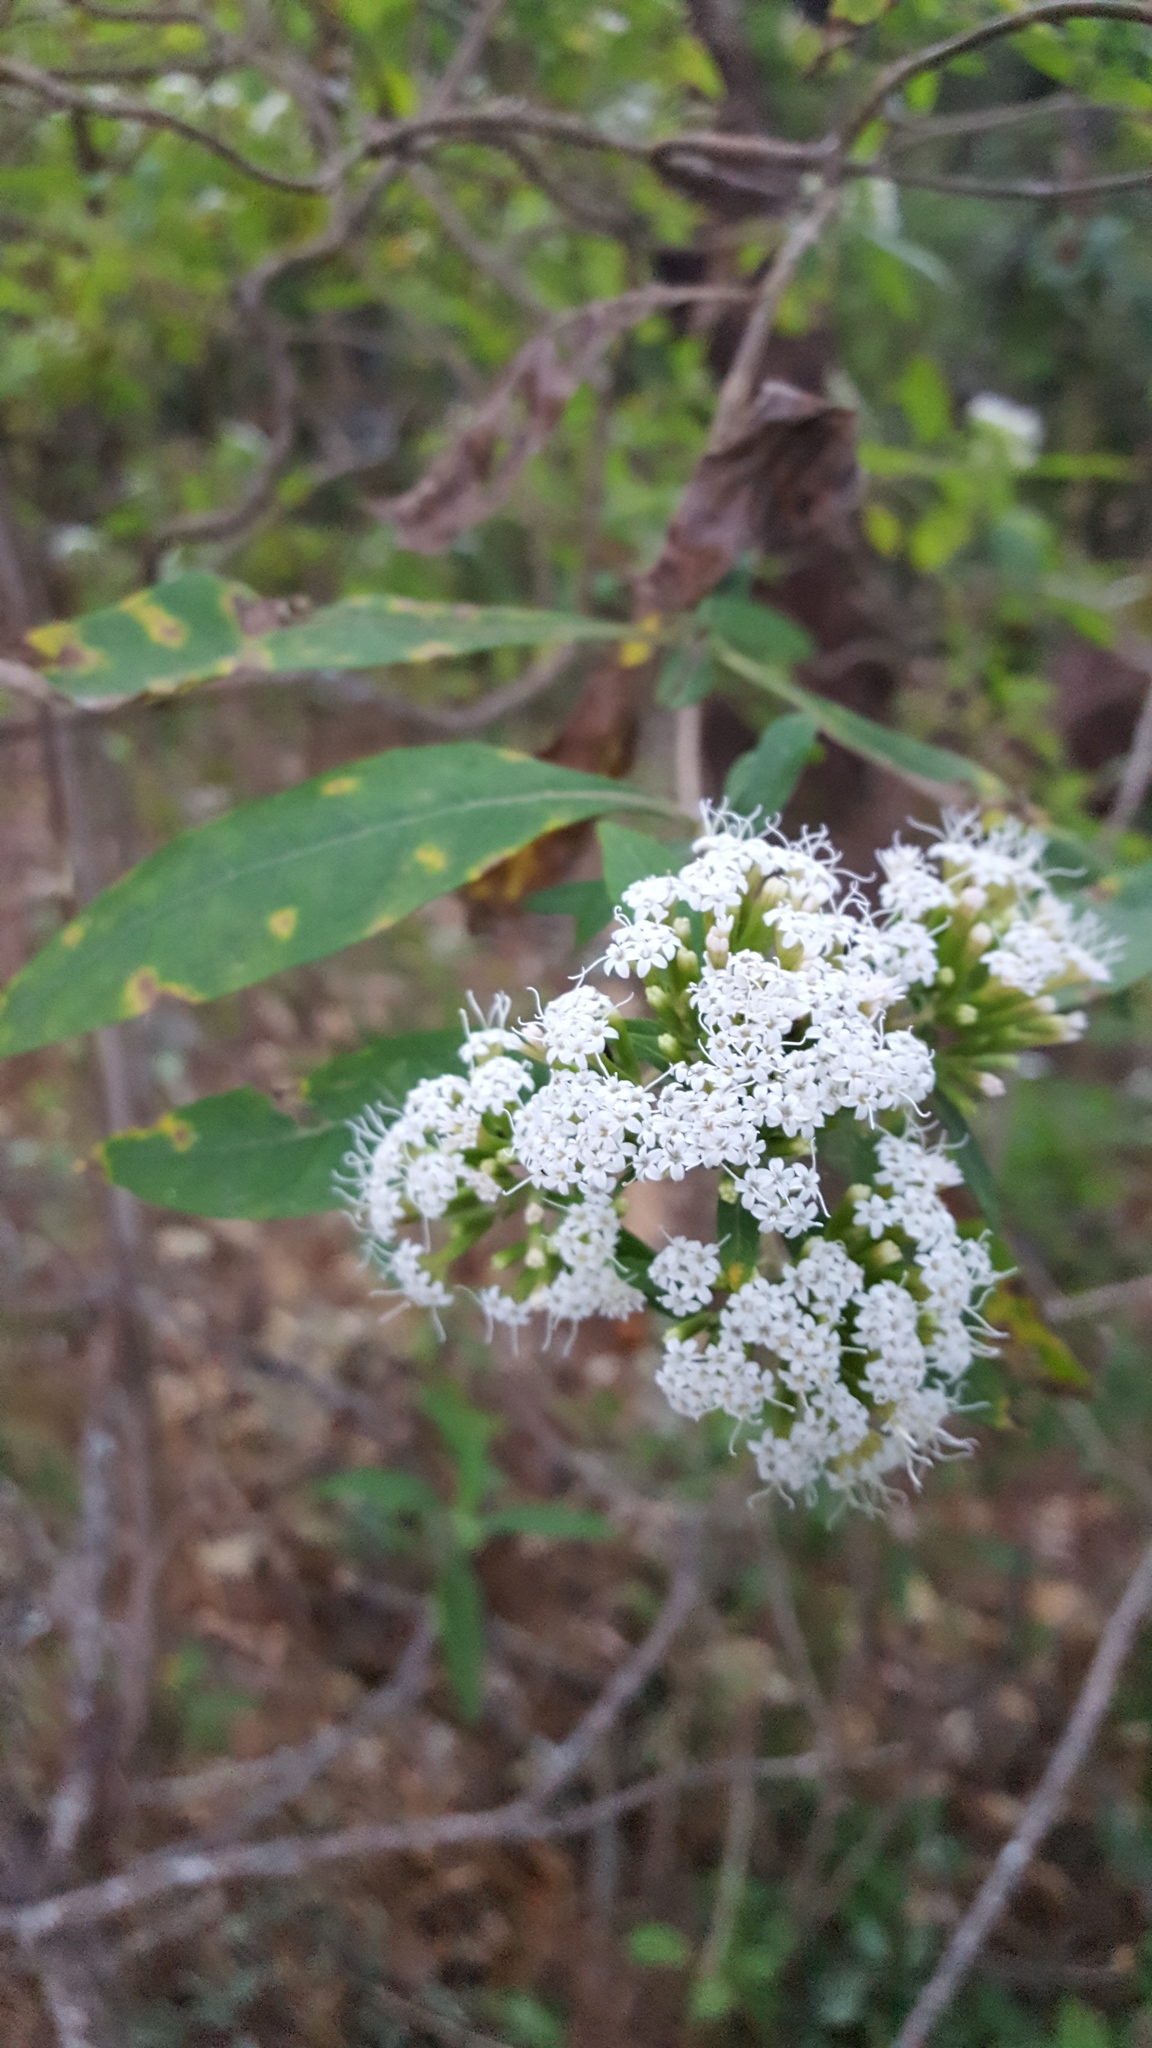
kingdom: Plantae
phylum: Tracheophyta
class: Magnoliopsida
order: Asterales
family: Asteraceae
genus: Stevia
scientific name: Stevia subpubescens
